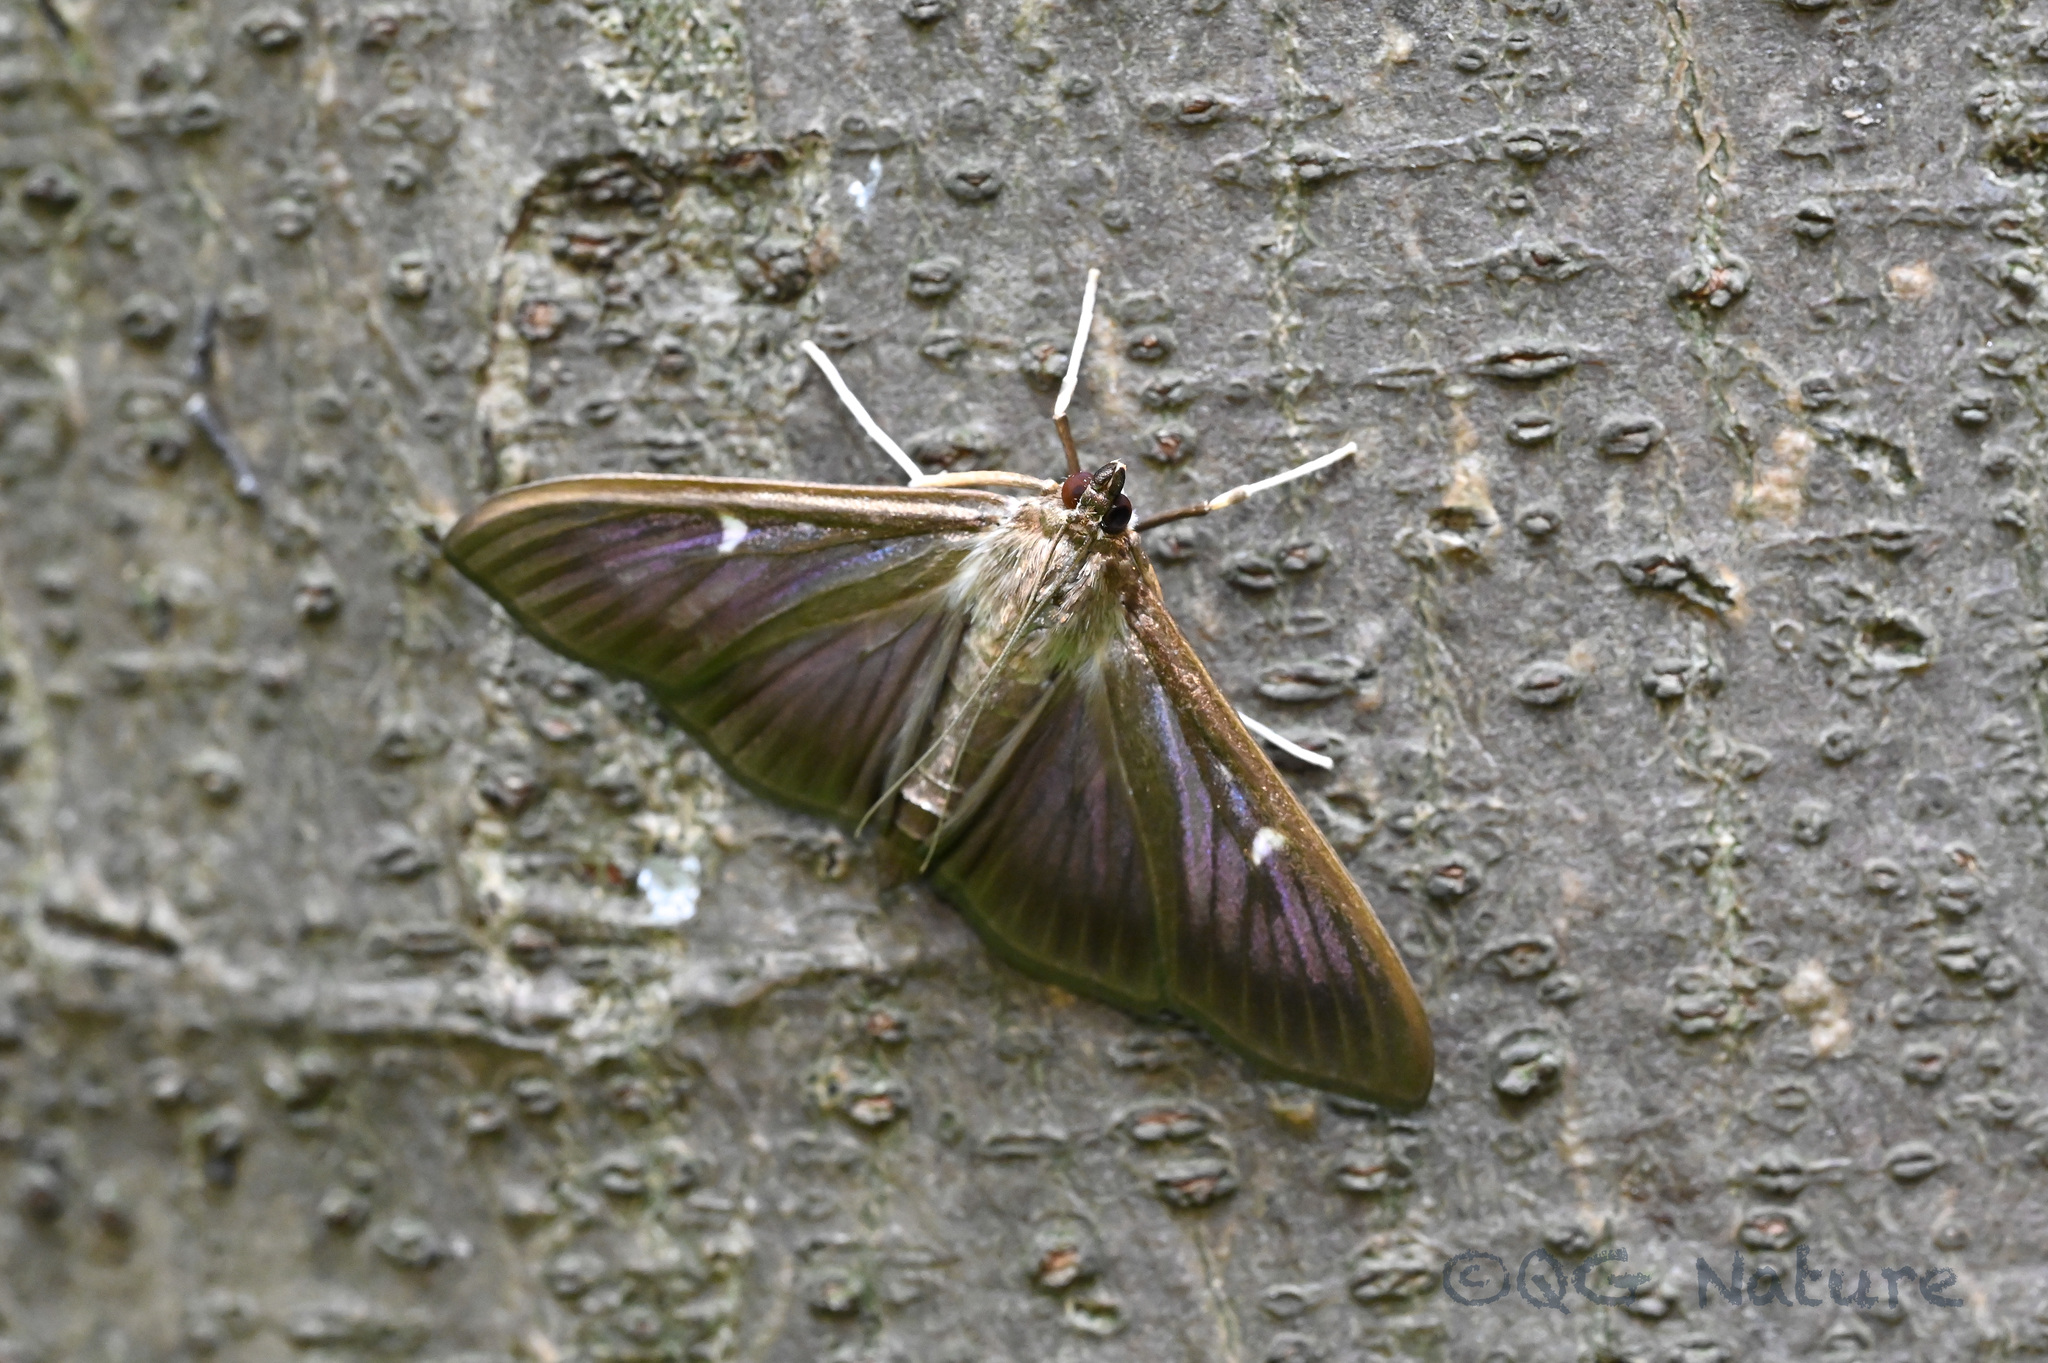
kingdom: Animalia
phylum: Arthropoda
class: Insecta
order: Lepidoptera
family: Crambidae
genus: Cydalima
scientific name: Cydalima perspectalis
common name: Box tree moth
